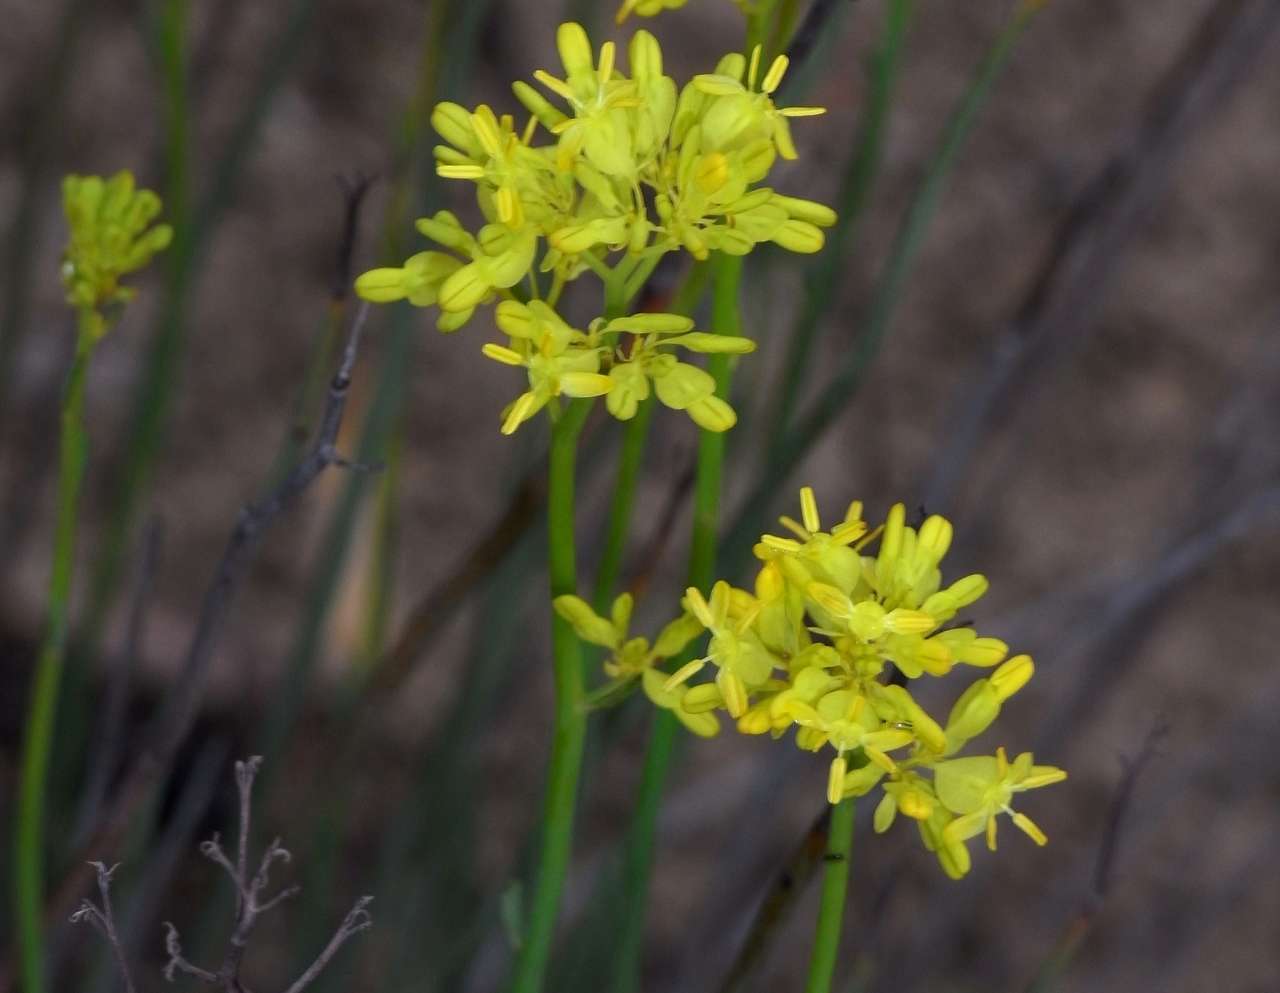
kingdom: Plantae
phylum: Tracheophyta
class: Magnoliopsida
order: Saxifragales
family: Haloragaceae
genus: Glischrocaryon
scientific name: Glischrocaryon behrii
